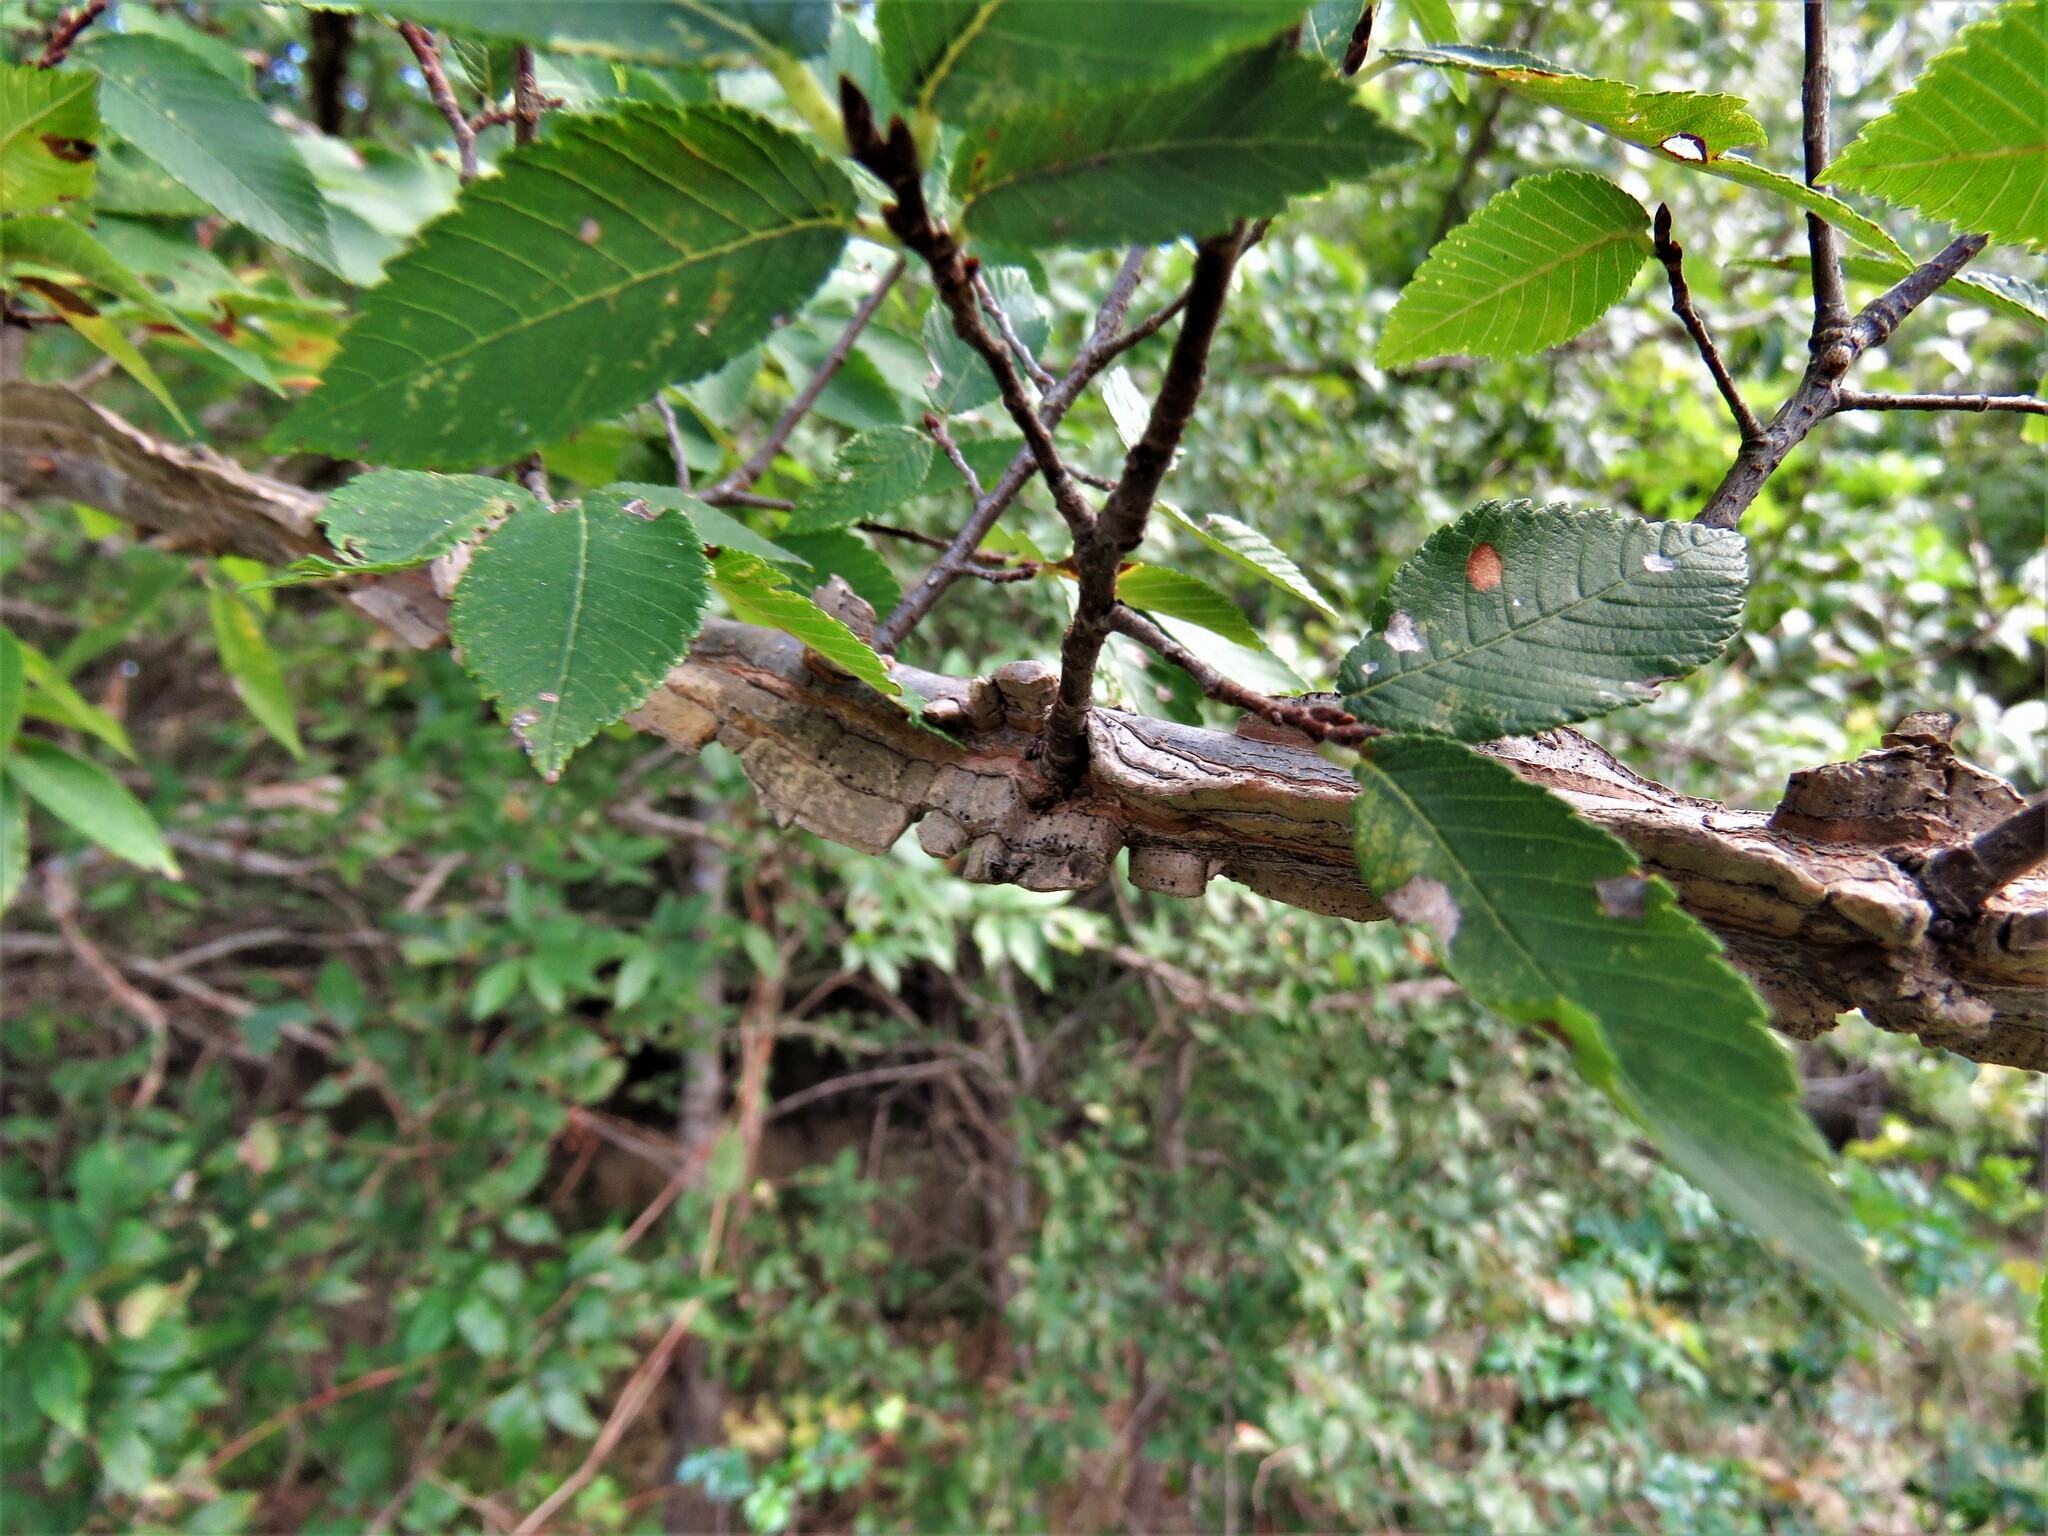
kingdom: Plantae
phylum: Tracheophyta
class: Magnoliopsida
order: Rosales
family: Ulmaceae
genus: Ulmus
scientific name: Ulmus alata
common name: Winged elm
